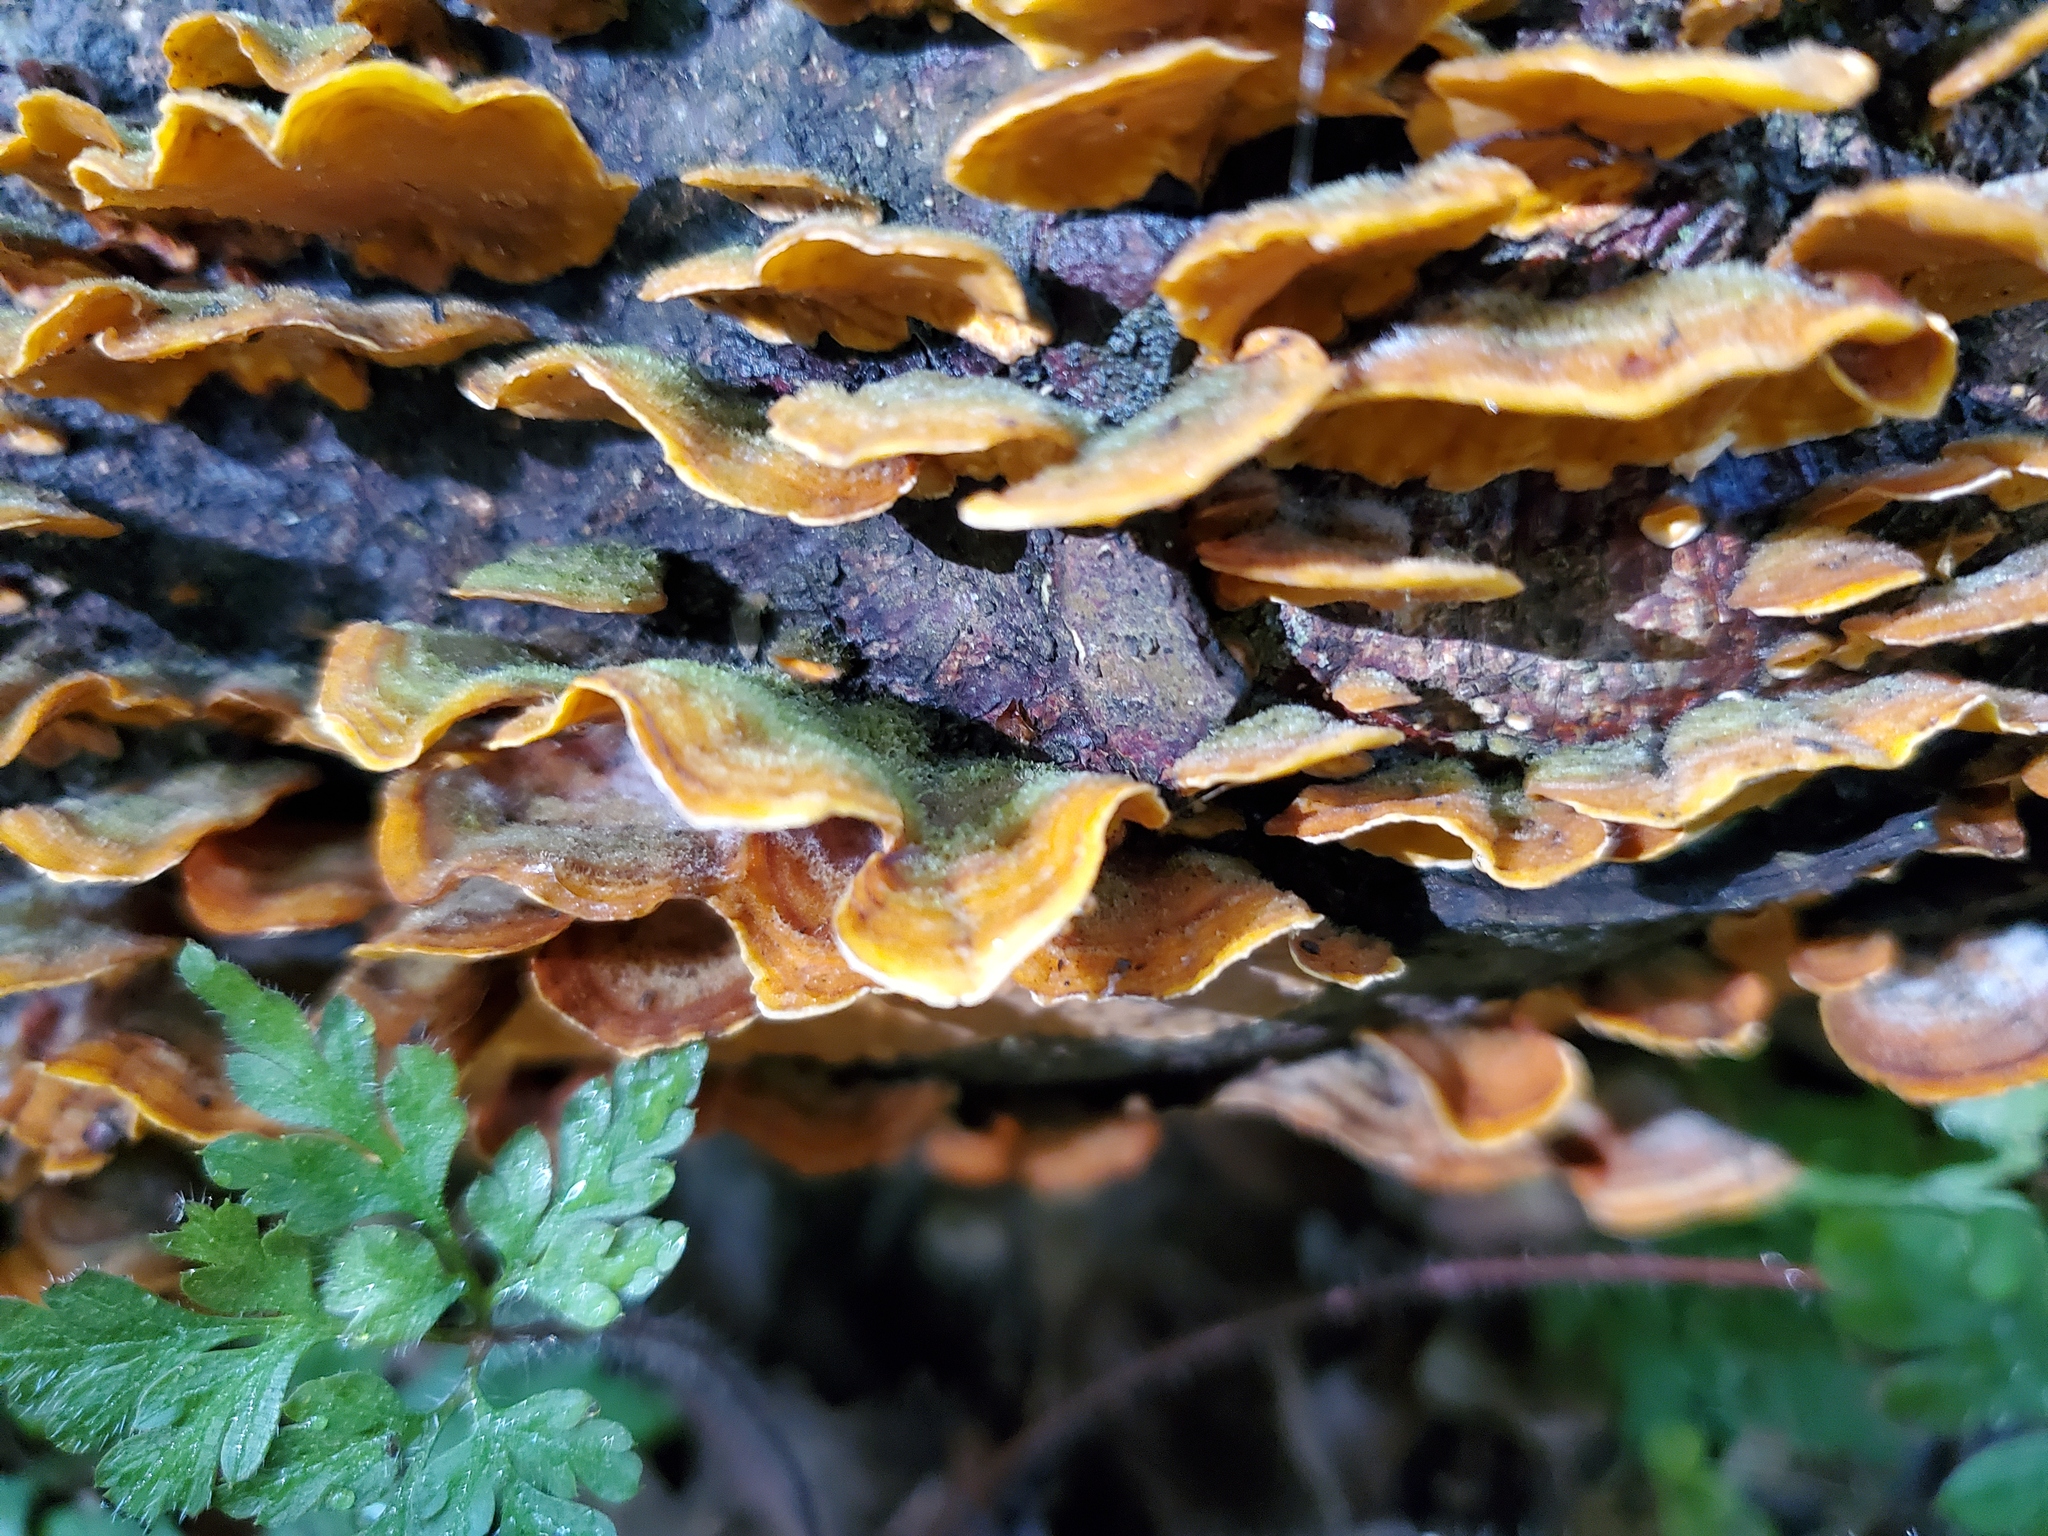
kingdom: Fungi
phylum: Basidiomycota
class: Agaricomycetes
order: Russulales
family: Stereaceae
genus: Stereum
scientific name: Stereum hirsutum
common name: Hairy curtain crust
